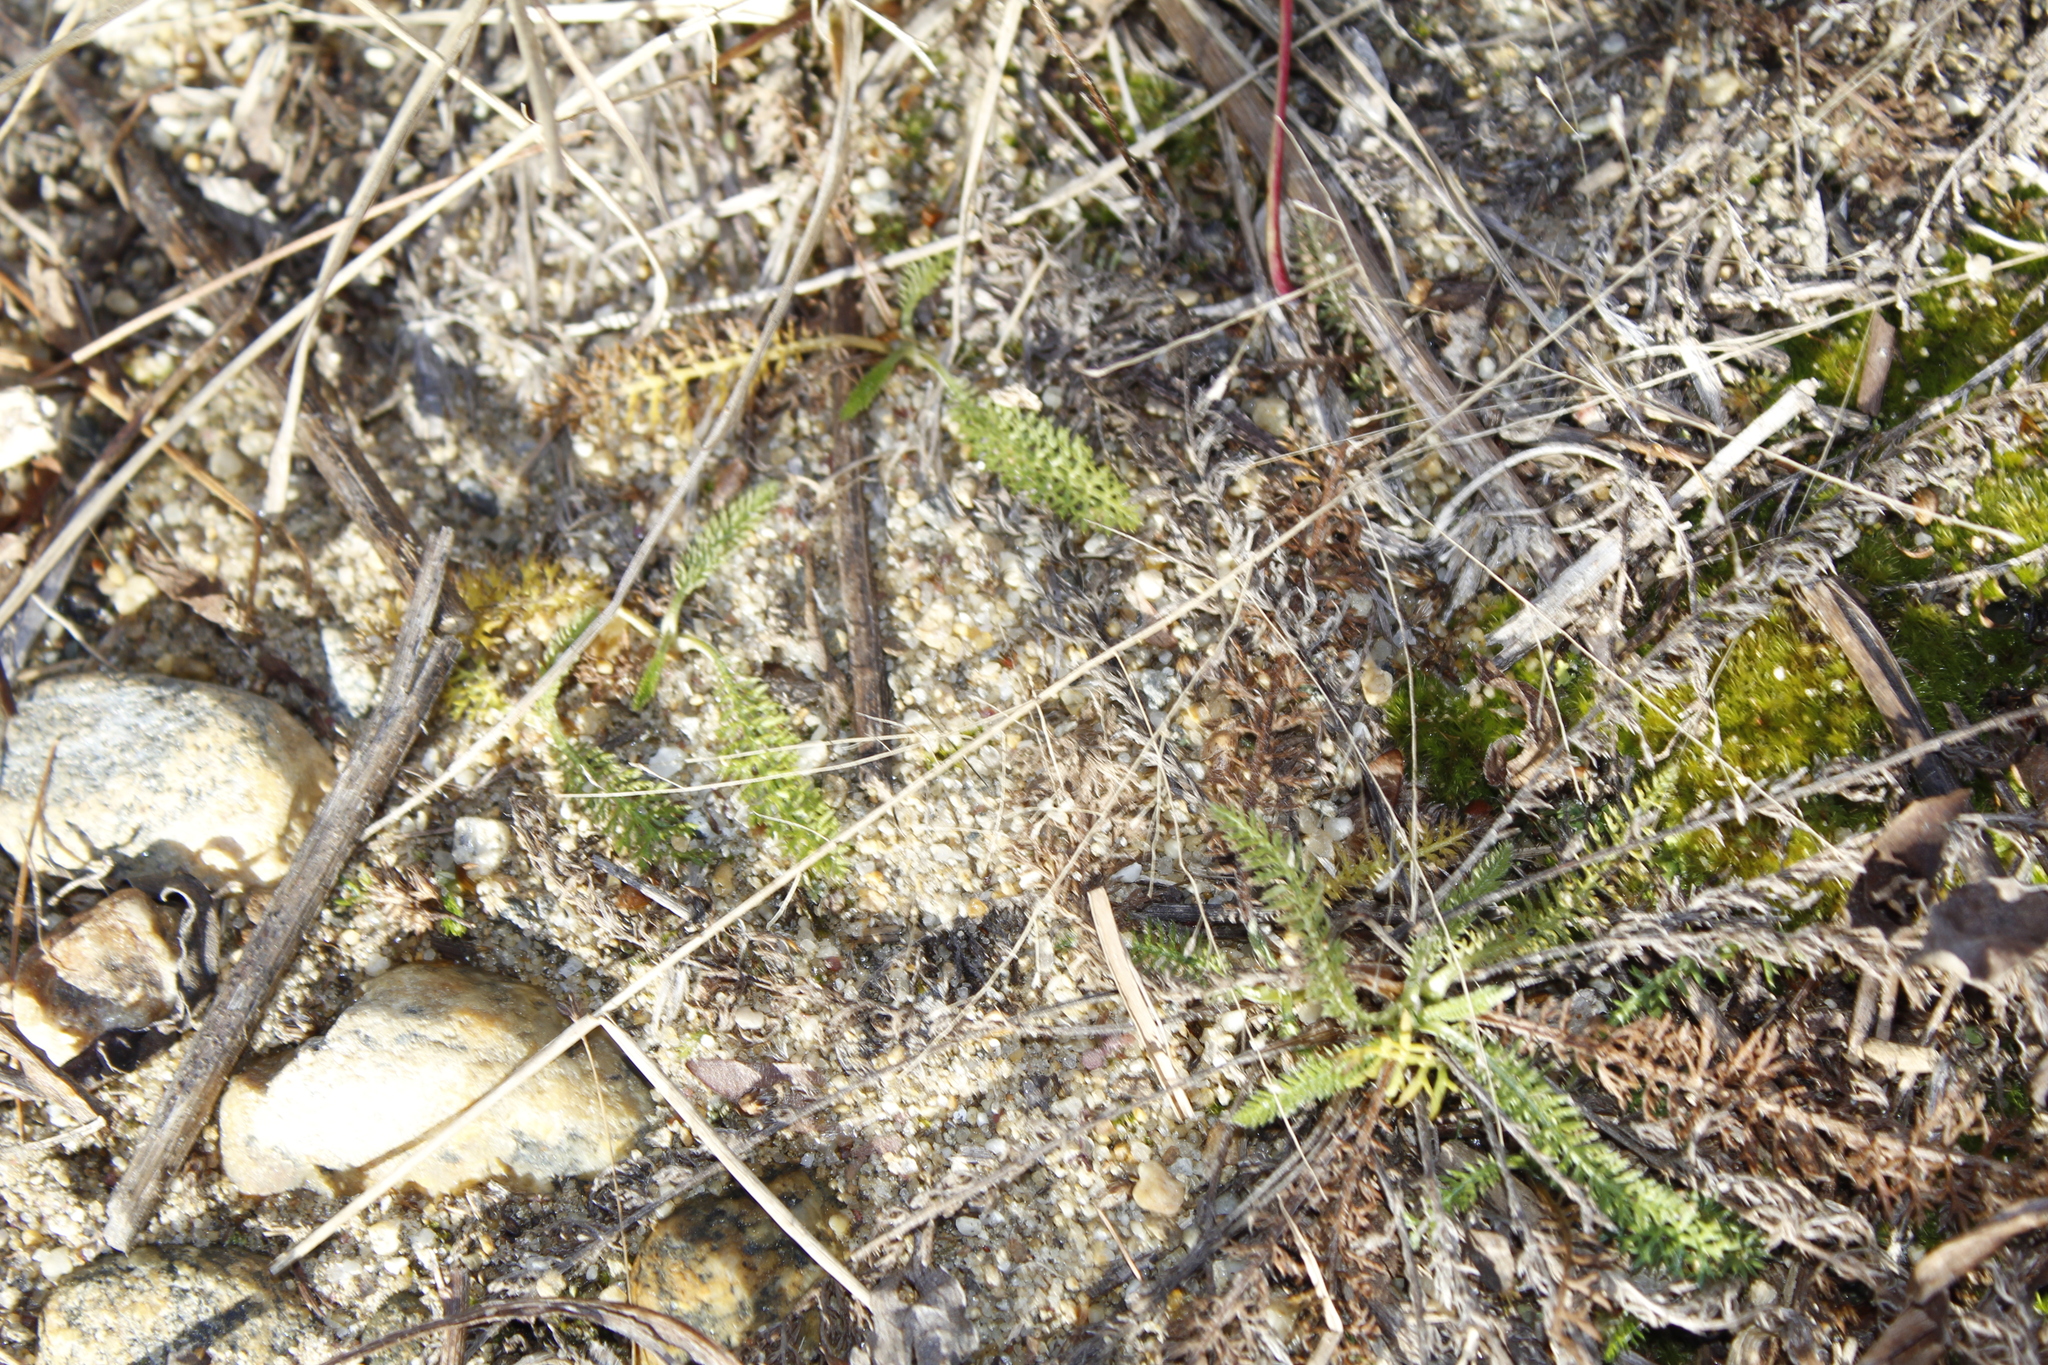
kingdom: Plantae
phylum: Tracheophyta
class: Magnoliopsida
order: Asterales
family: Asteraceae
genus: Achillea
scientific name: Achillea millefolium
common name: Yarrow
